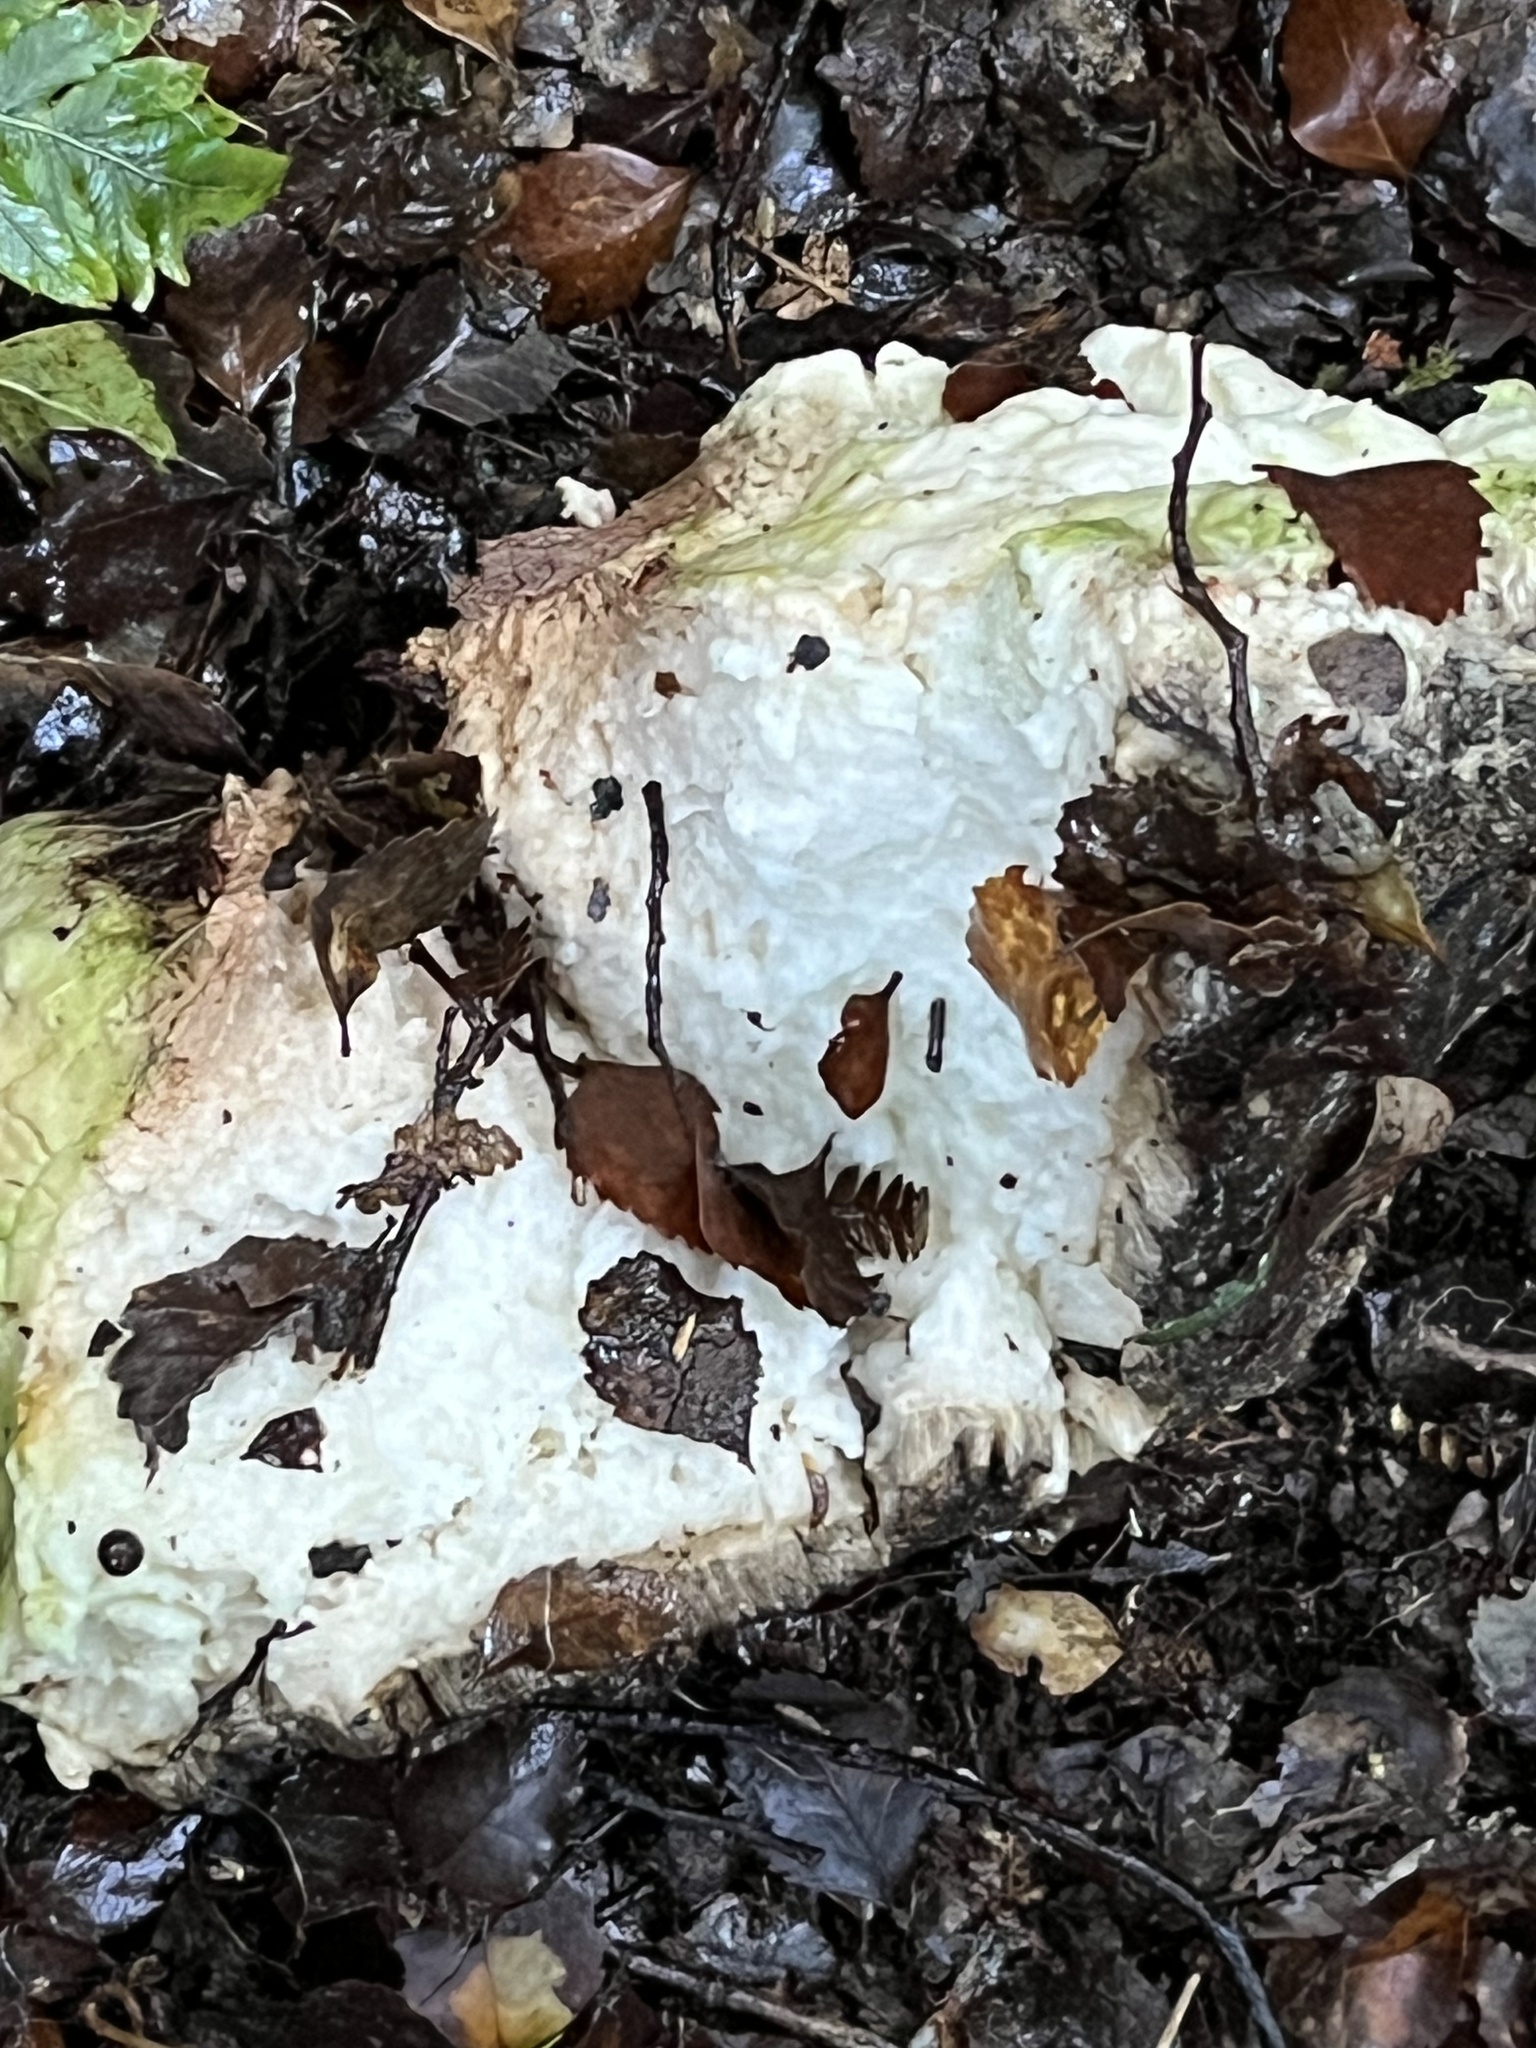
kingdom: Fungi
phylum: Basidiomycota
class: Agaricomycetes
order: Polyporales
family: Laetiporaceae
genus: Laetiporus
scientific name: Laetiporus portentosus
